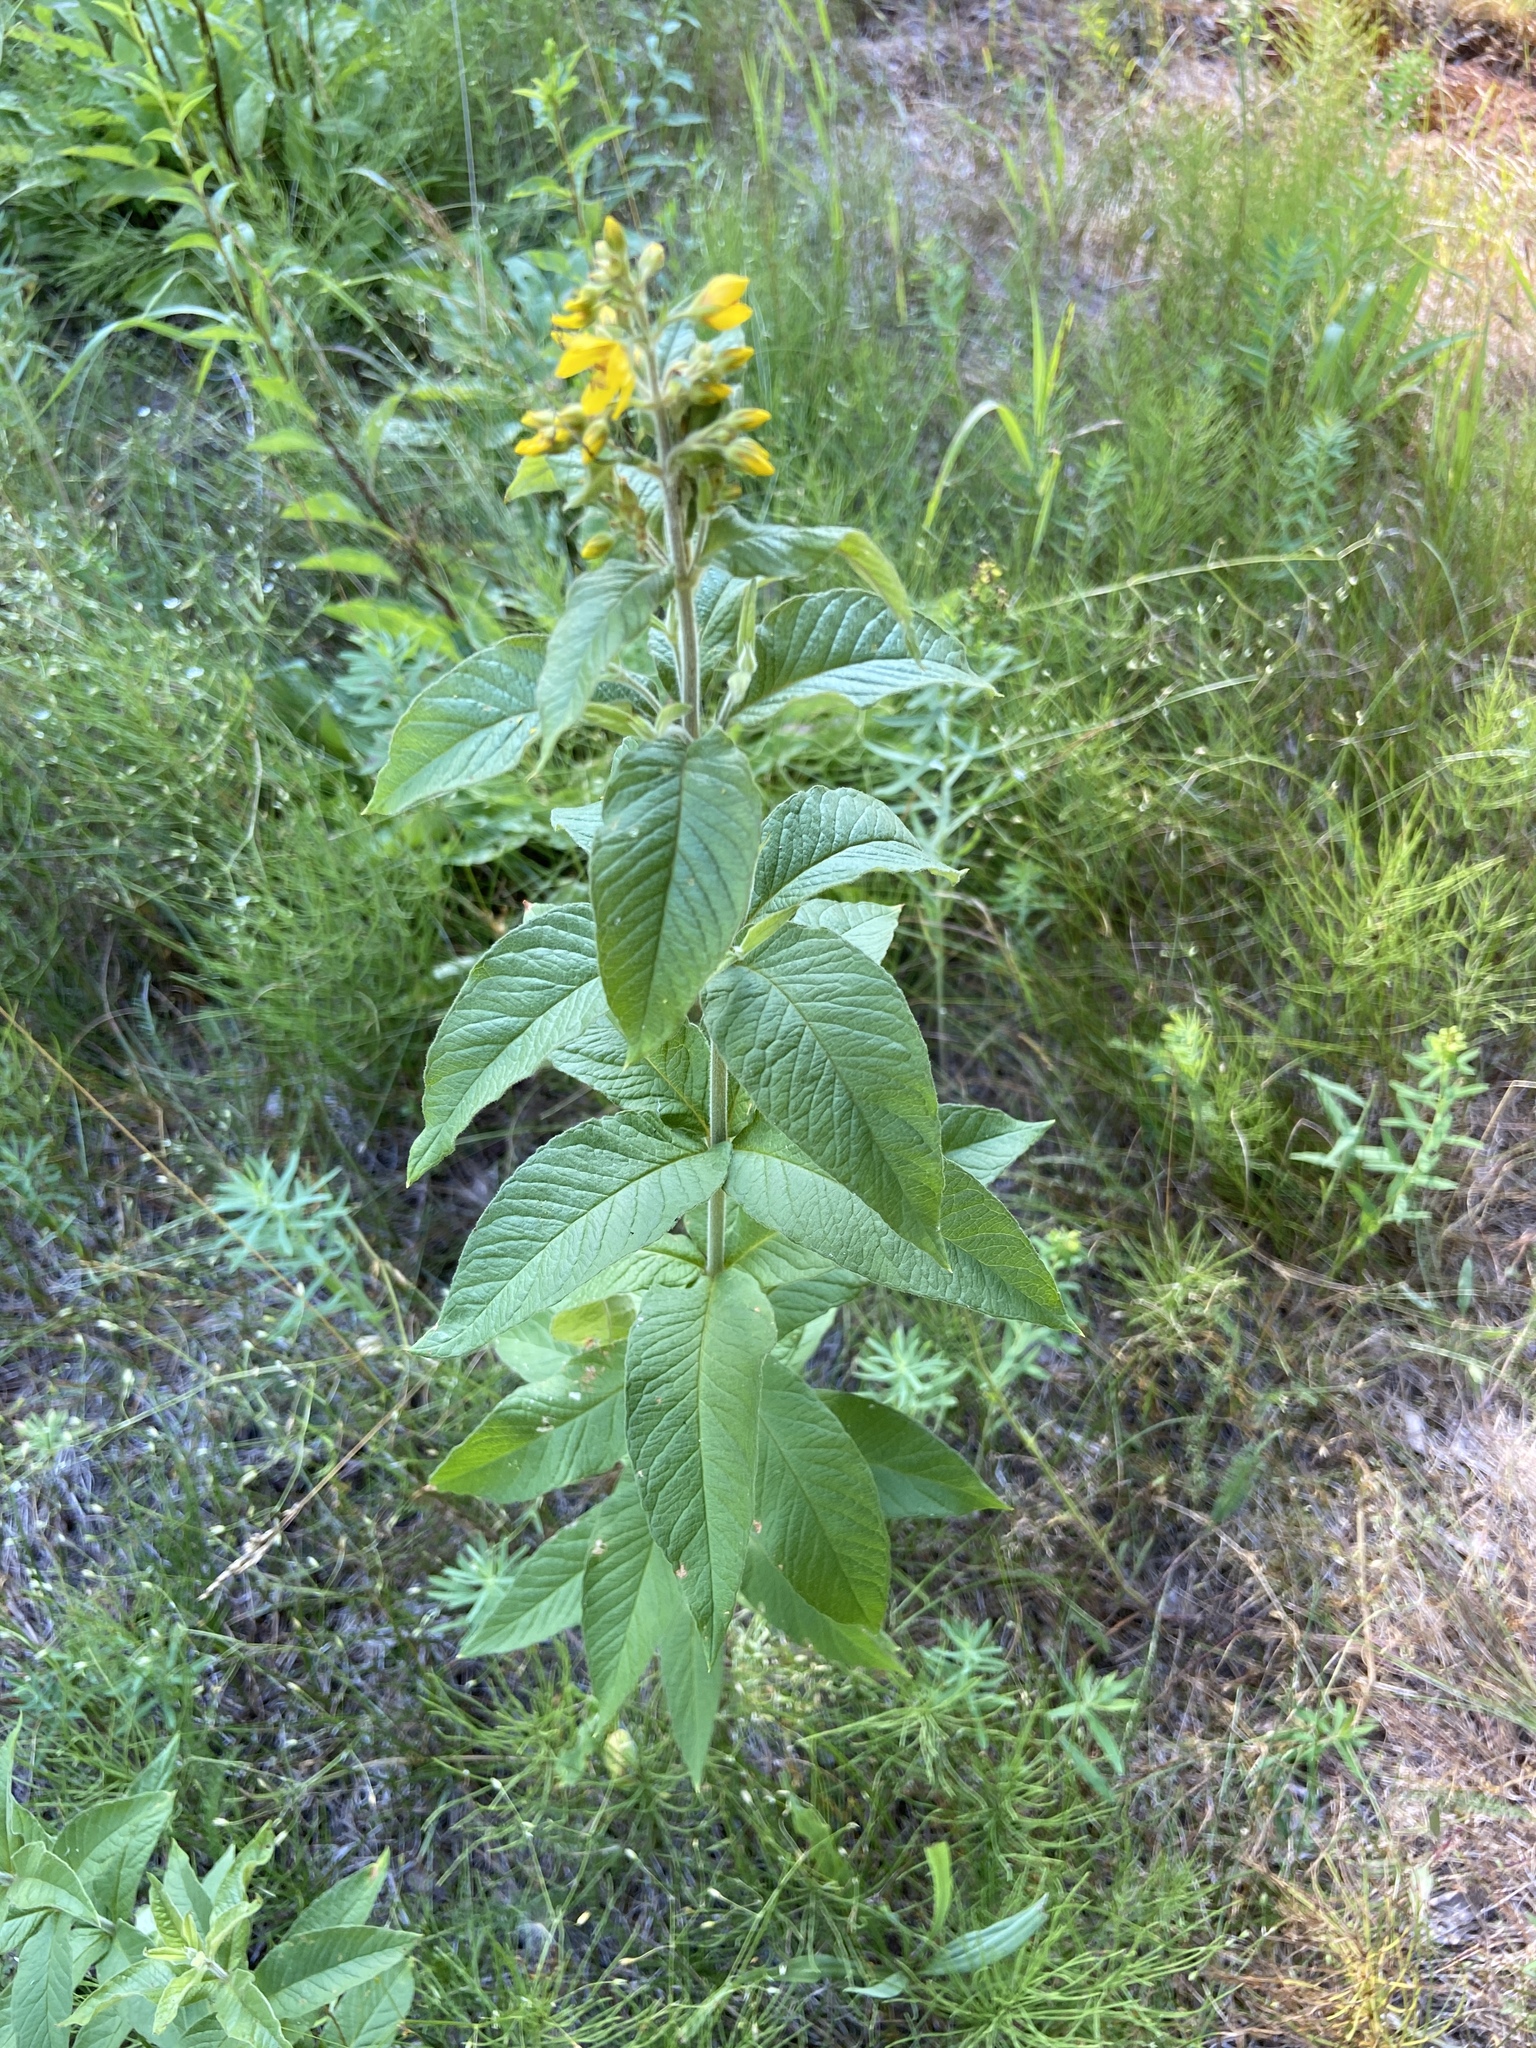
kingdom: Plantae
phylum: Tracheophyta
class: Magnoliopsida
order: Ericales
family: Primulaceae
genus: Lysimachia
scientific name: Lysimachia vulgaris
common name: Yellow loosestrife
